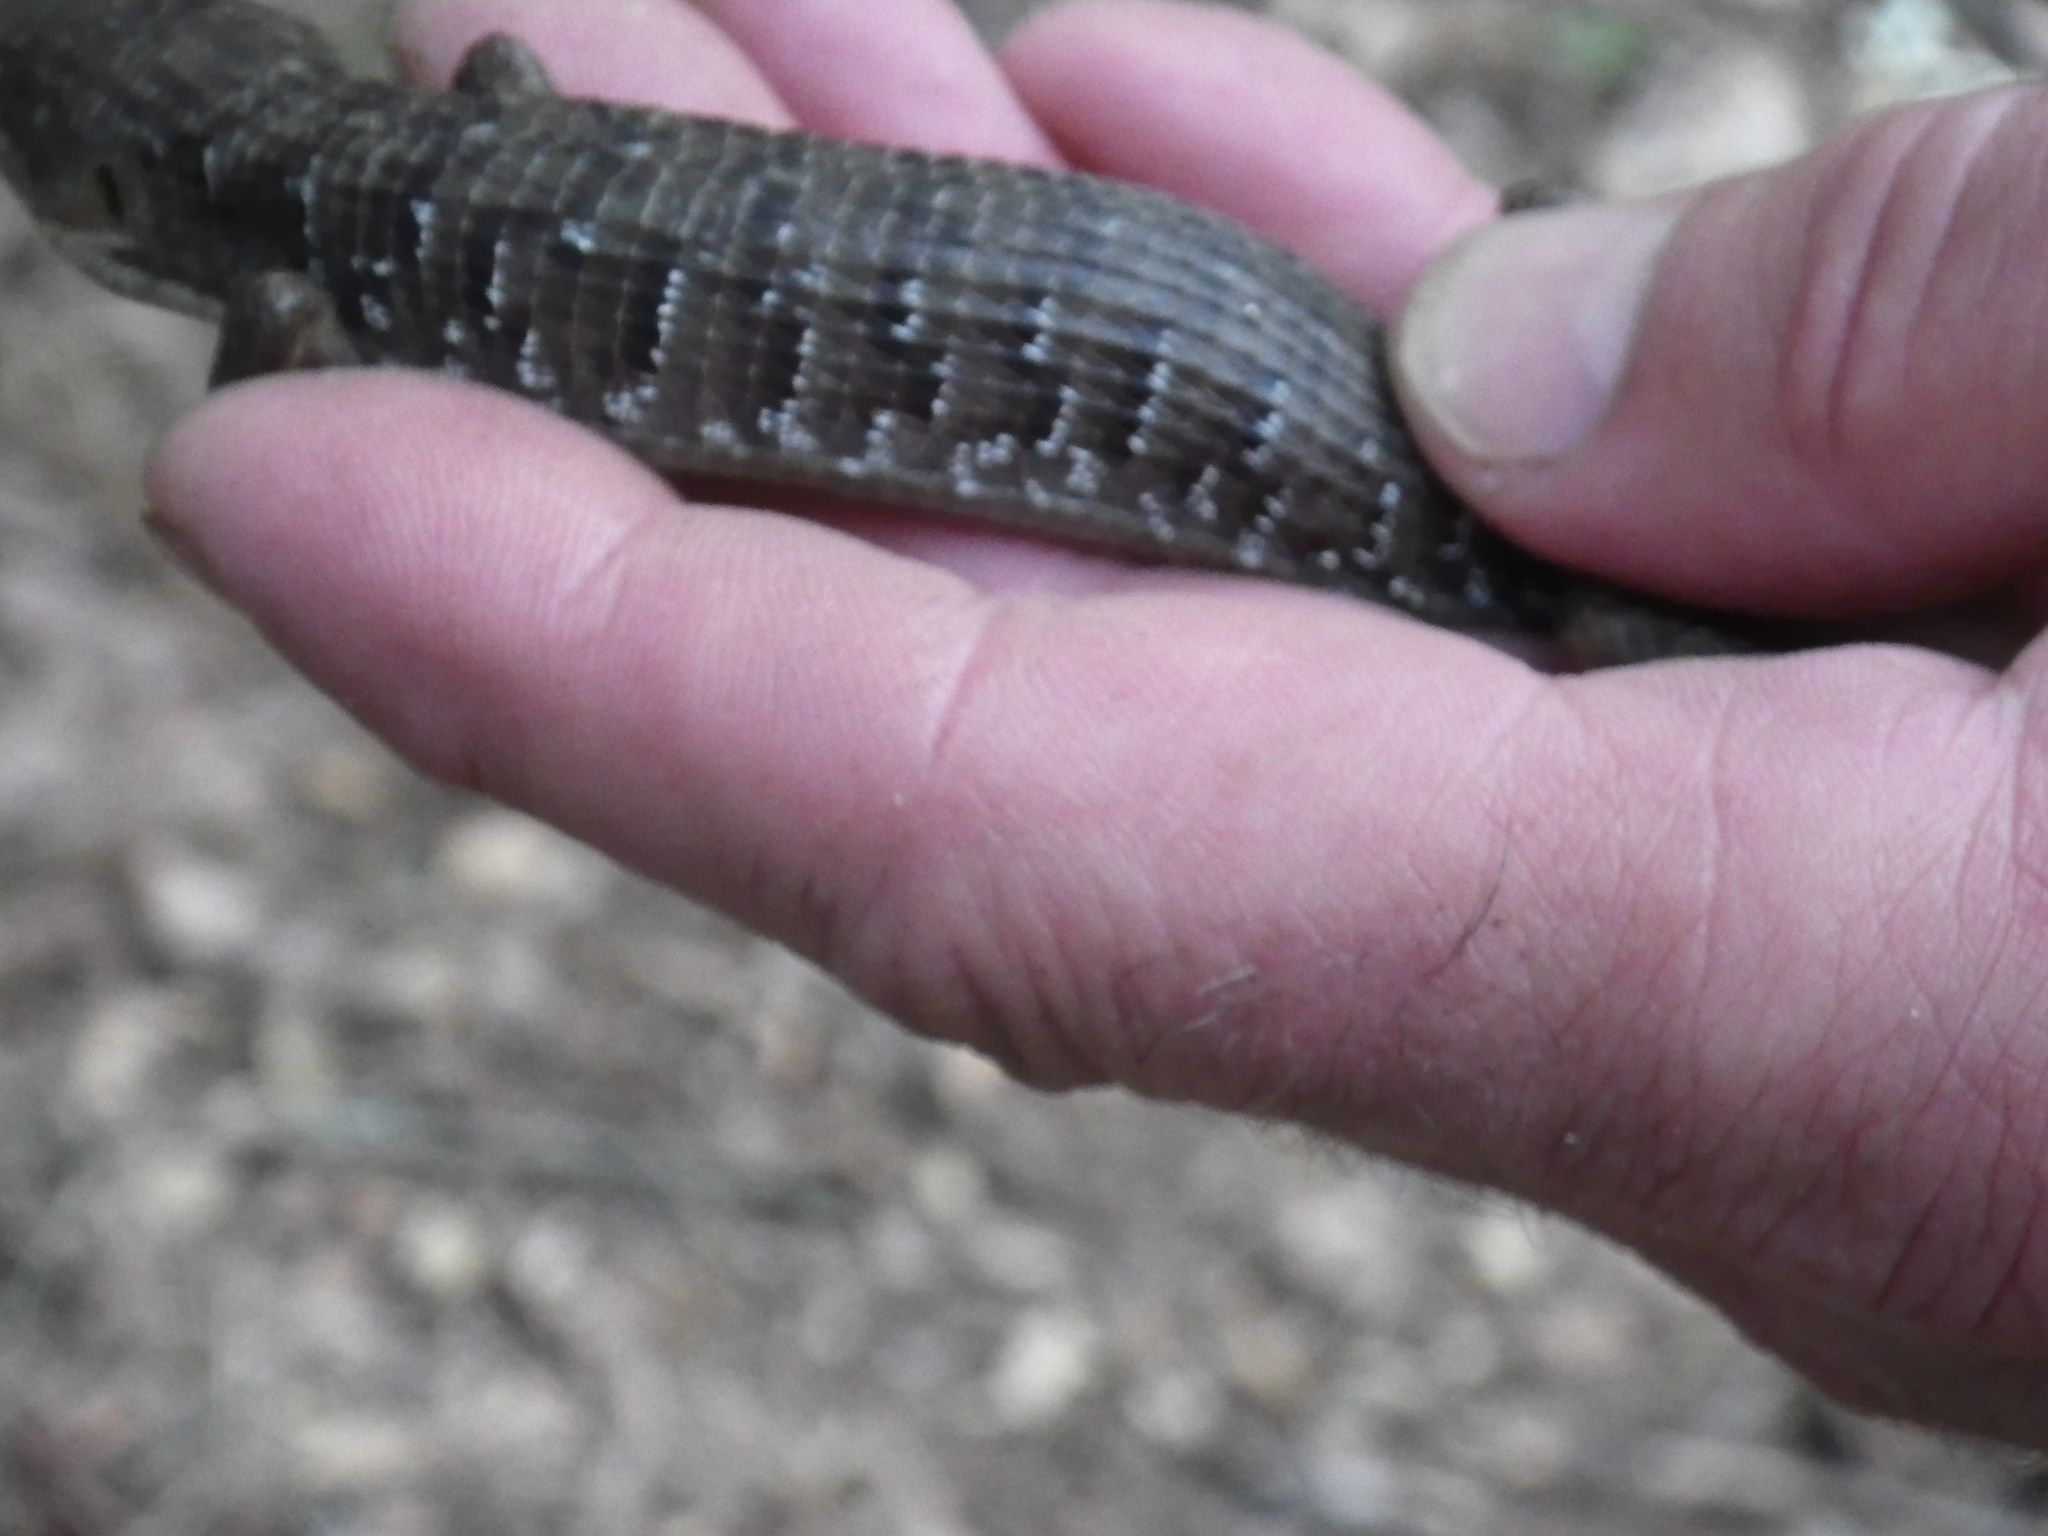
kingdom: Animalia
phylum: Chordata
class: Squamata
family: Anguidae
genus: Elgaria
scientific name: Elgaria multicarinata
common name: Southern alligator lizard
